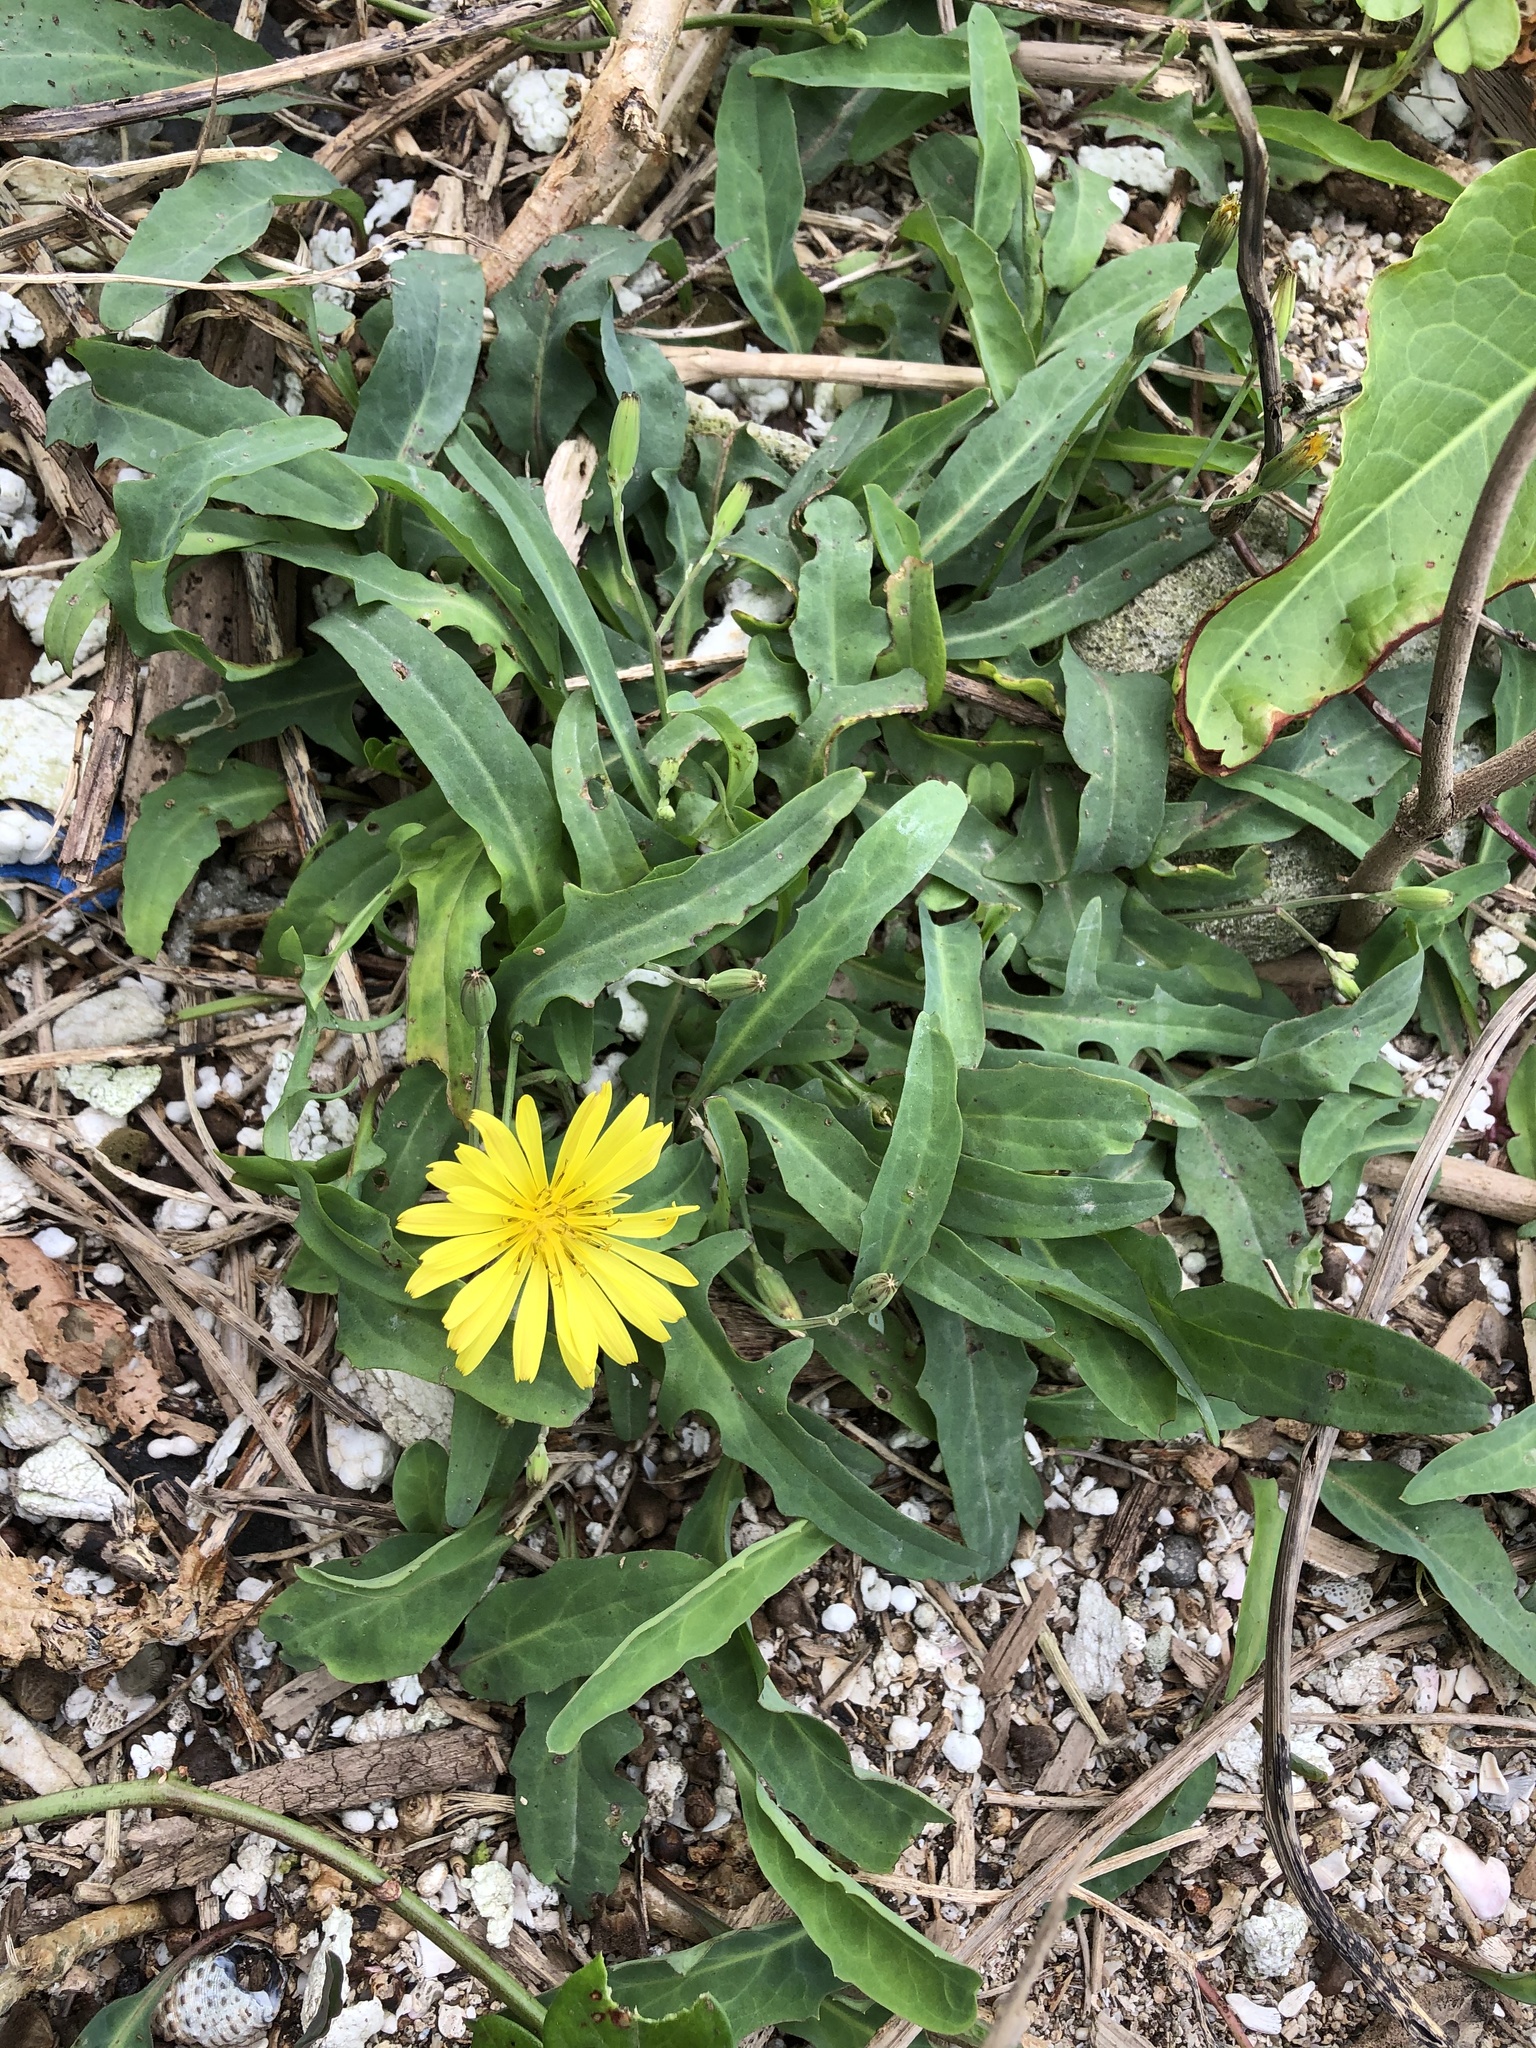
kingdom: Plantae
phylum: Tracheophyta
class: Magnoliopsida
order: Asterales
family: Asteraceae
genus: Ixeris
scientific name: Ixeris japonica
